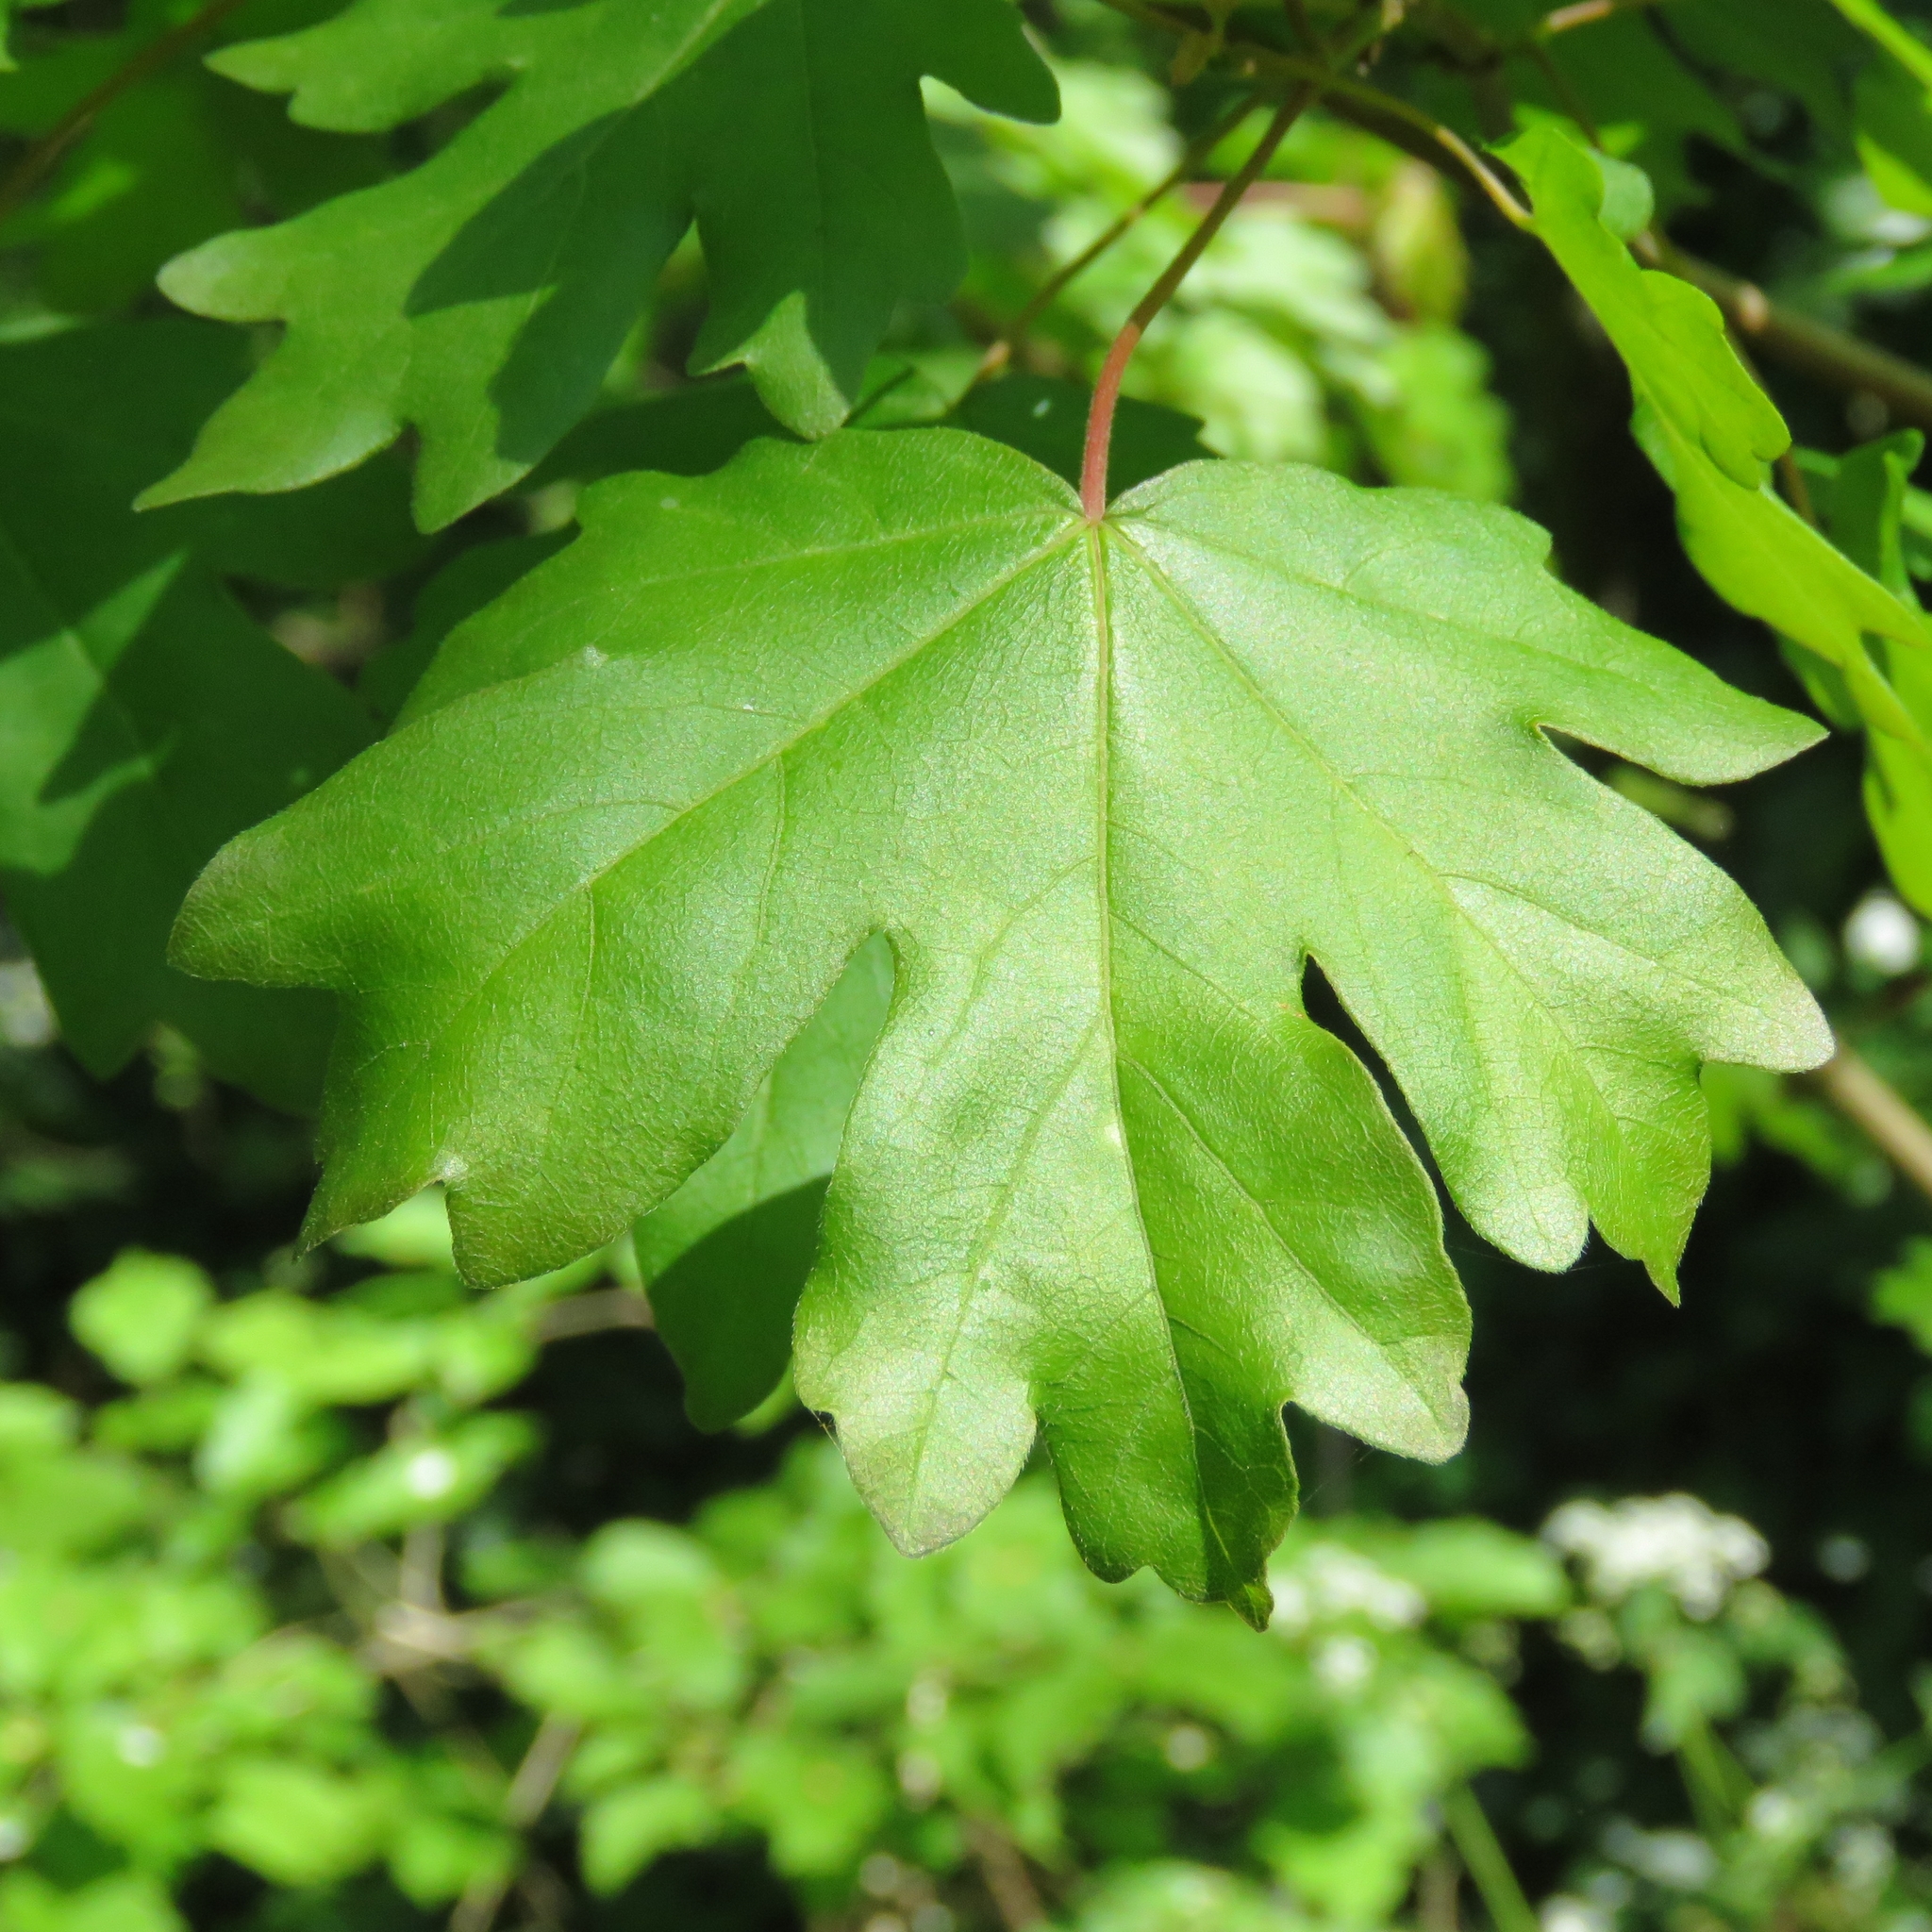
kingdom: Plantae
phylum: Tracheophyta
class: Magnoliopsida
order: Sapindales
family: Sapindaceae
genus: Acer
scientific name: Acer campestre
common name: Field maple
